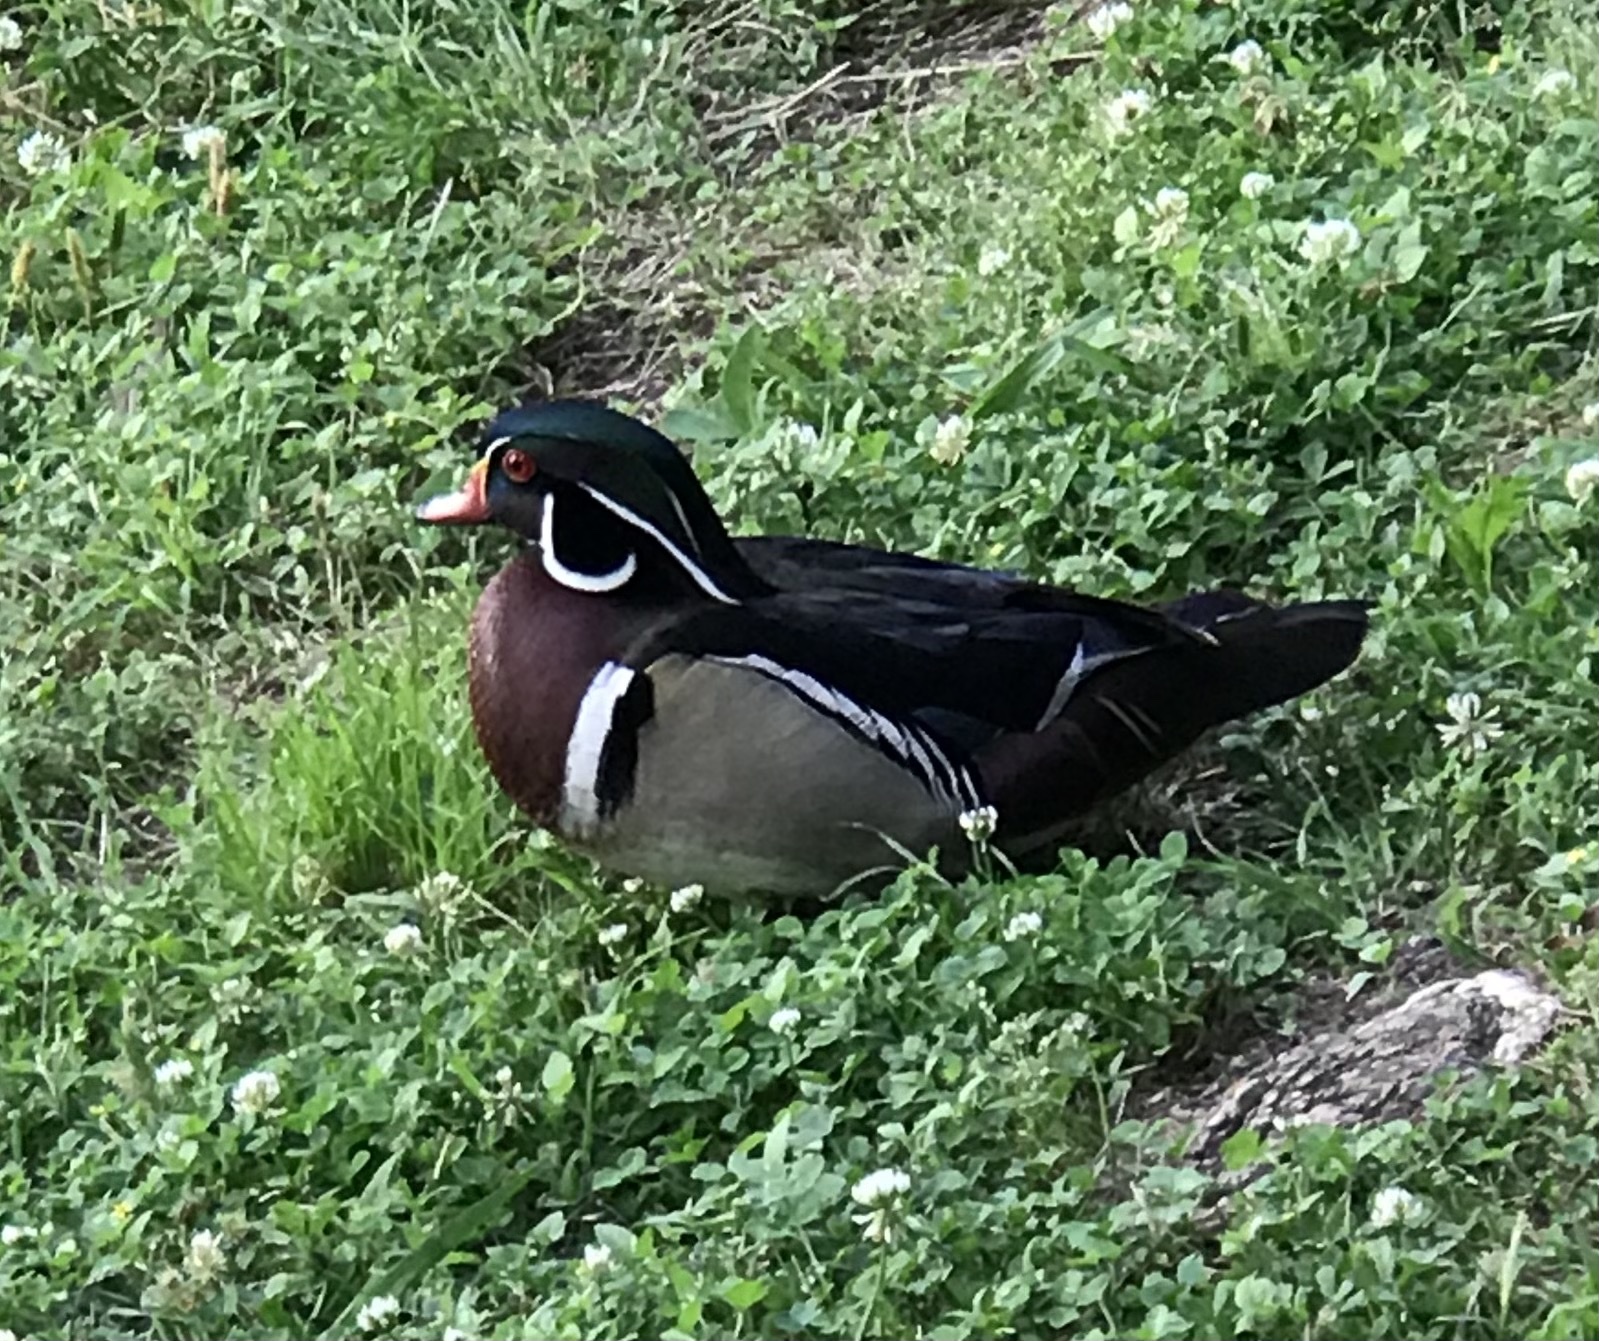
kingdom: Animalia
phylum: Chordata
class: Aves
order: Anseriformes
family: Anatidae
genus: Aix
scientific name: Aix sponsa
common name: Wood duck
